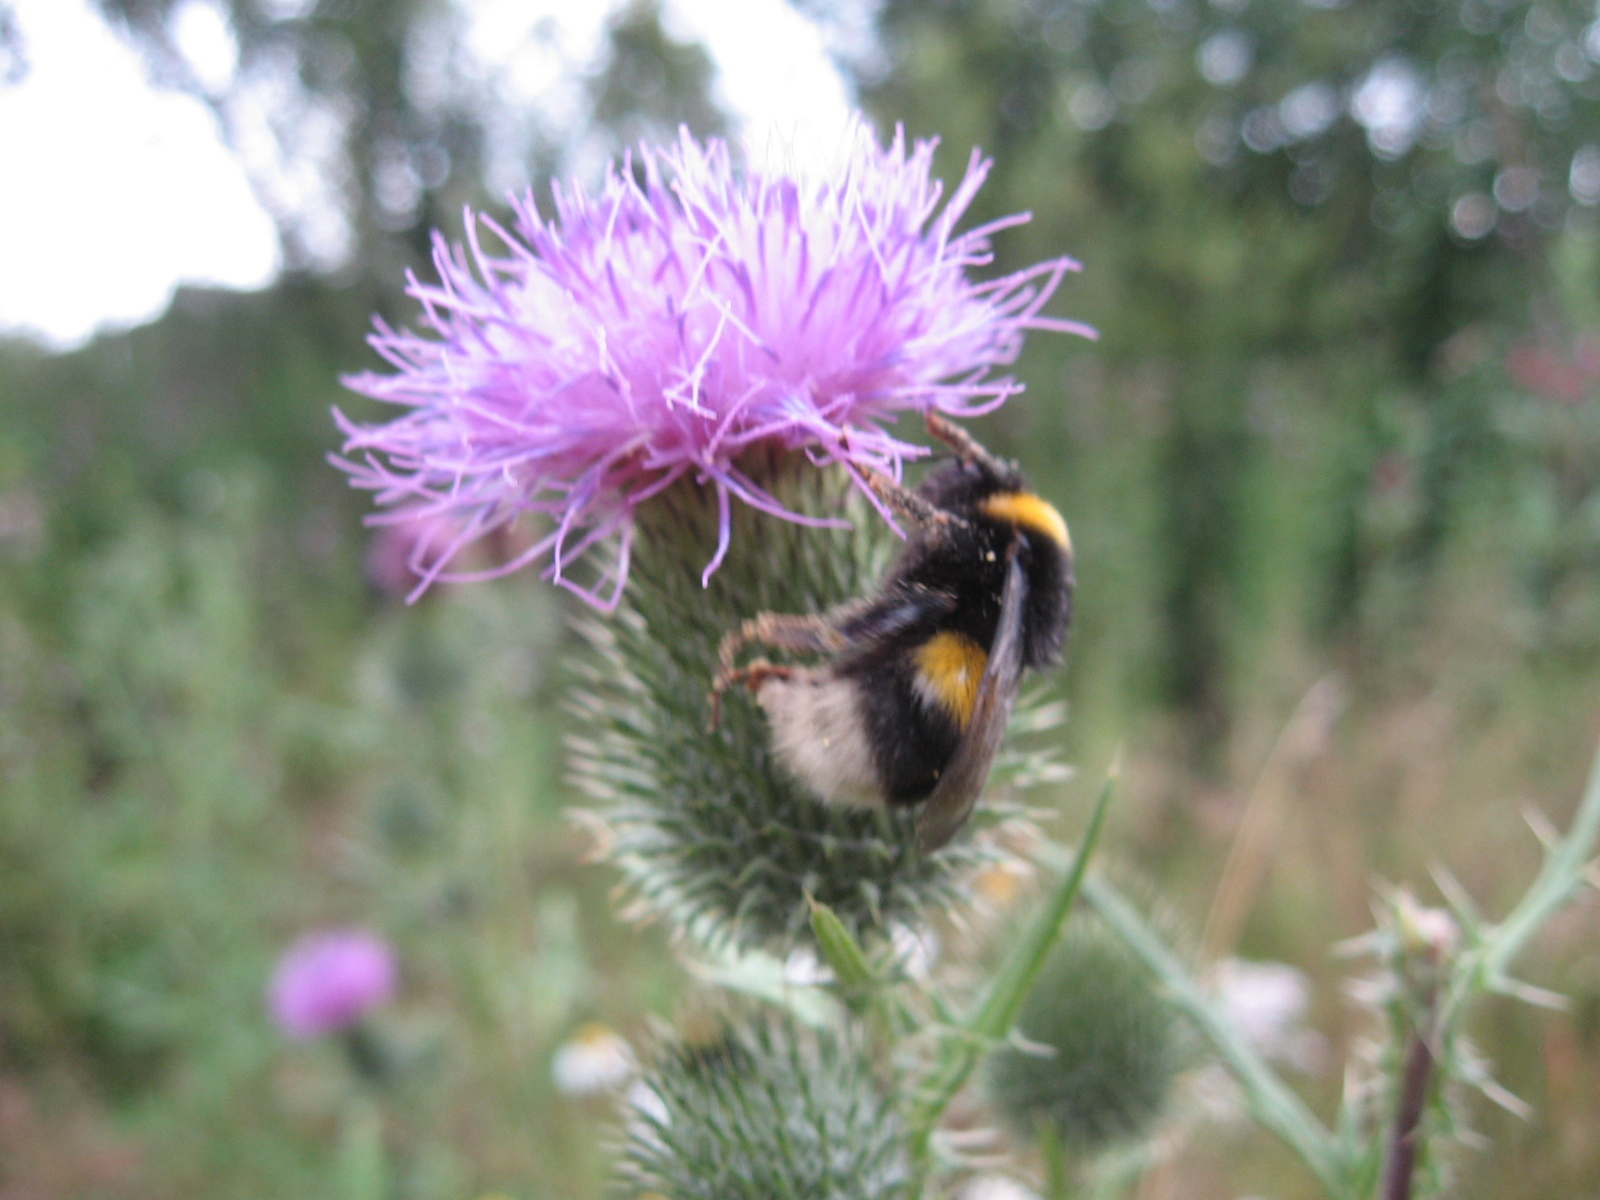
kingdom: Animalia
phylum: Arthropoda
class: Insecta
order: Hymenoptera
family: Apidae
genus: Bombus
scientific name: Bombus
